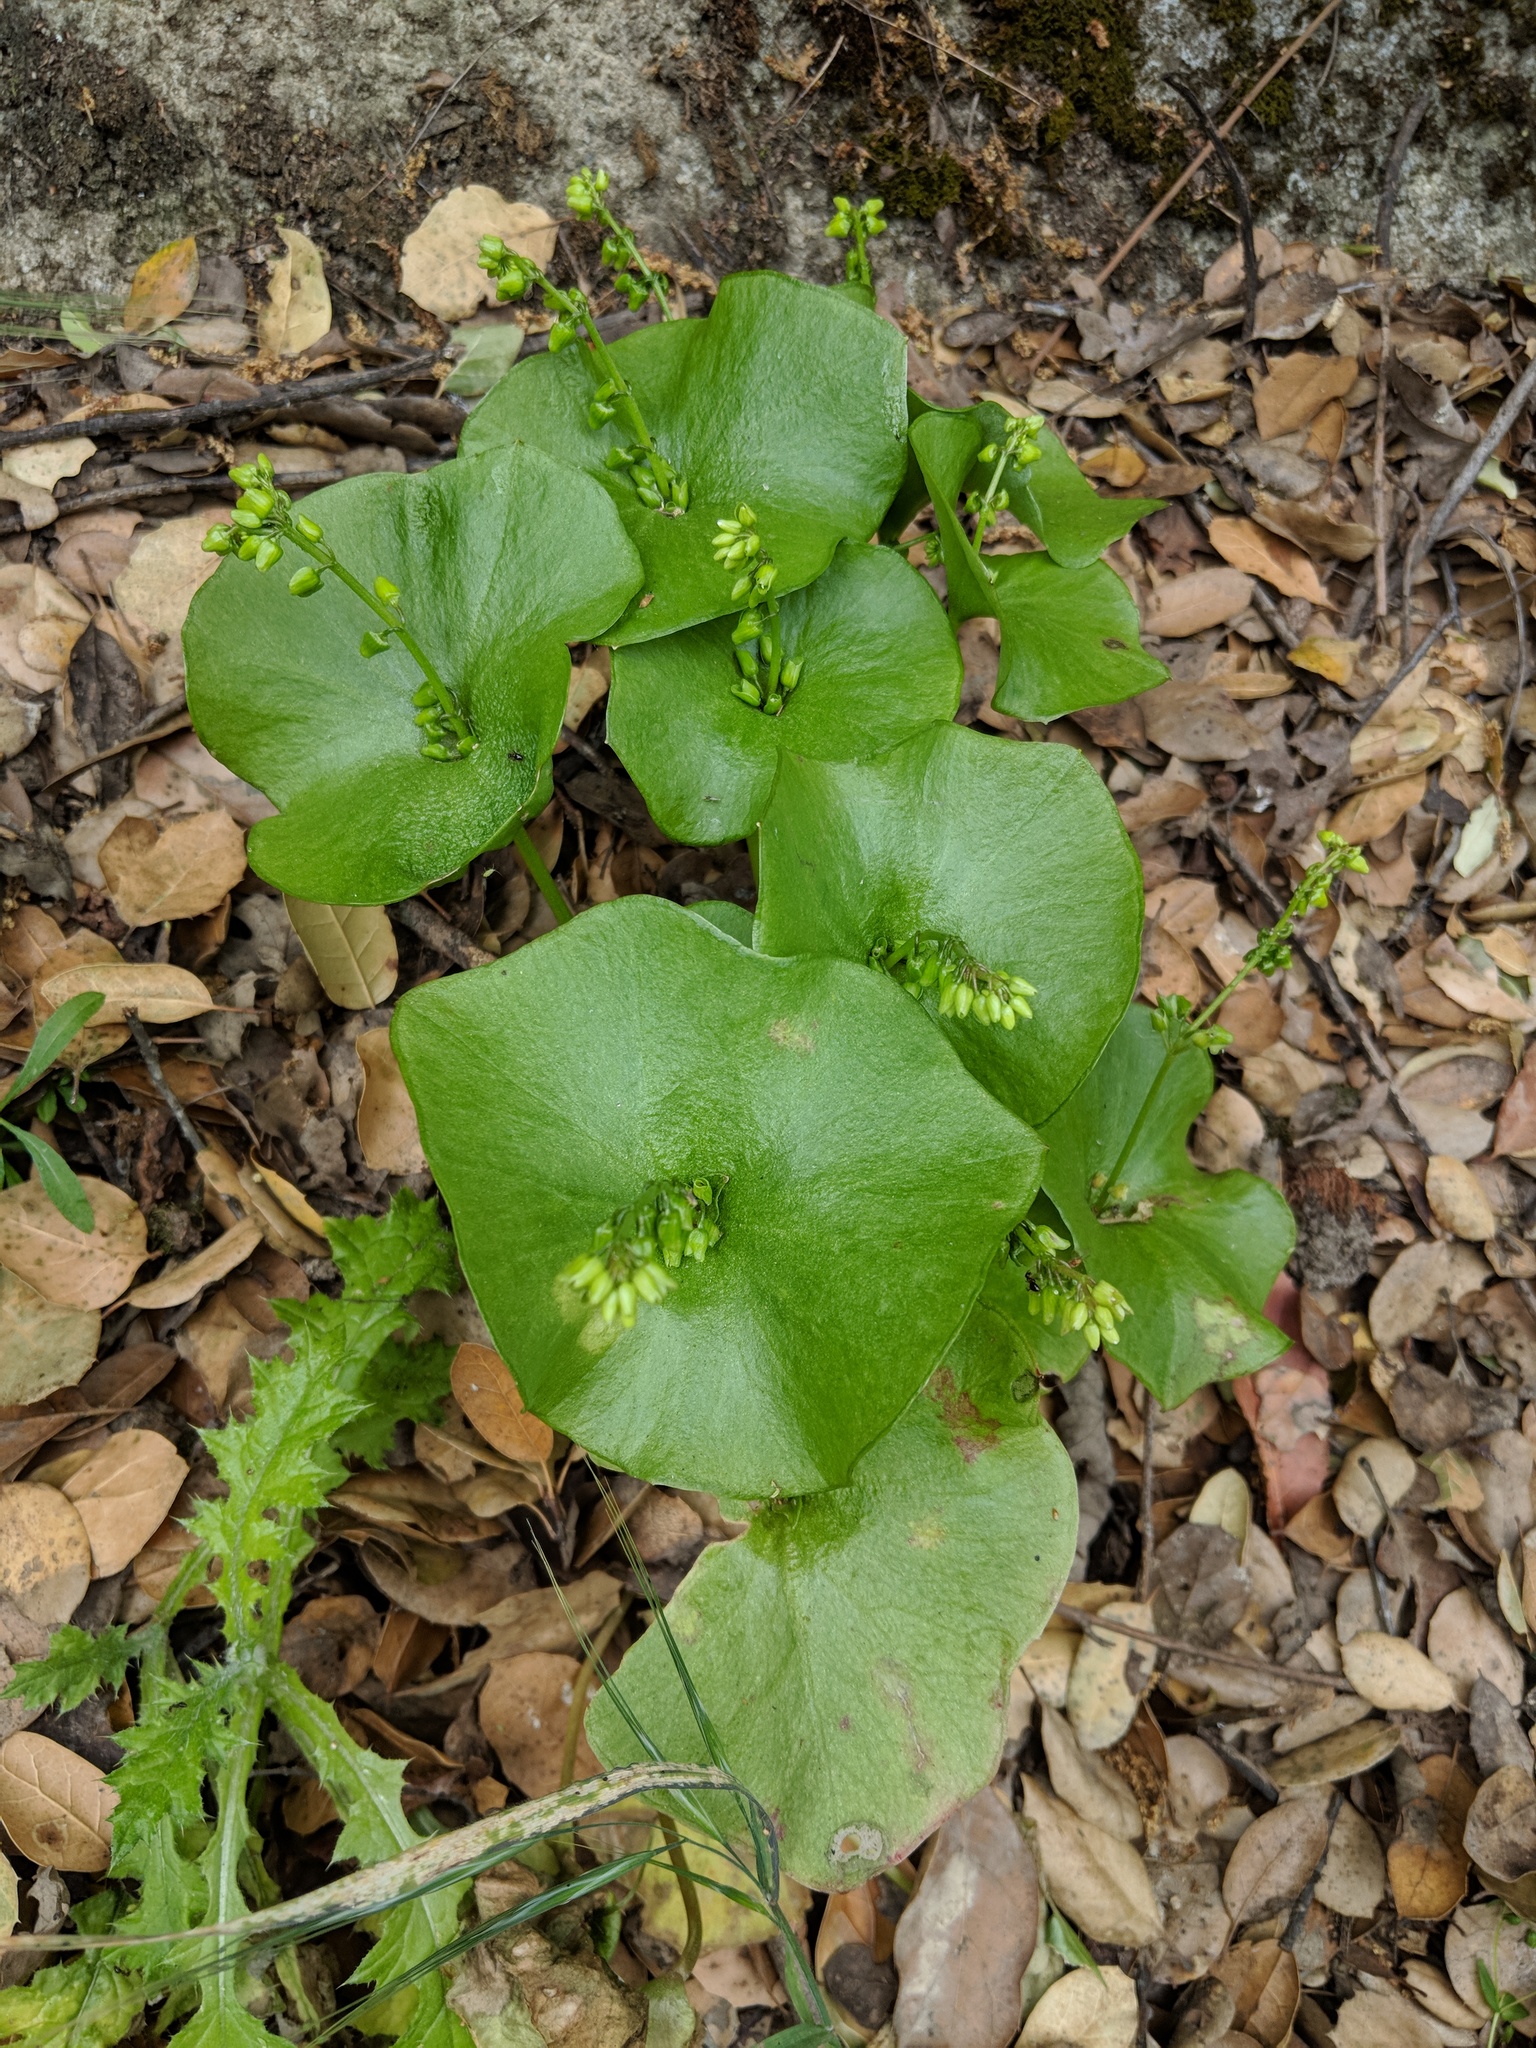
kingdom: Plantae
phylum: Tracheophyta
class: Magnoliopsida
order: Caryophyllales
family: Montiaceae
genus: Claytonia
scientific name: Claytonia perfoliata
